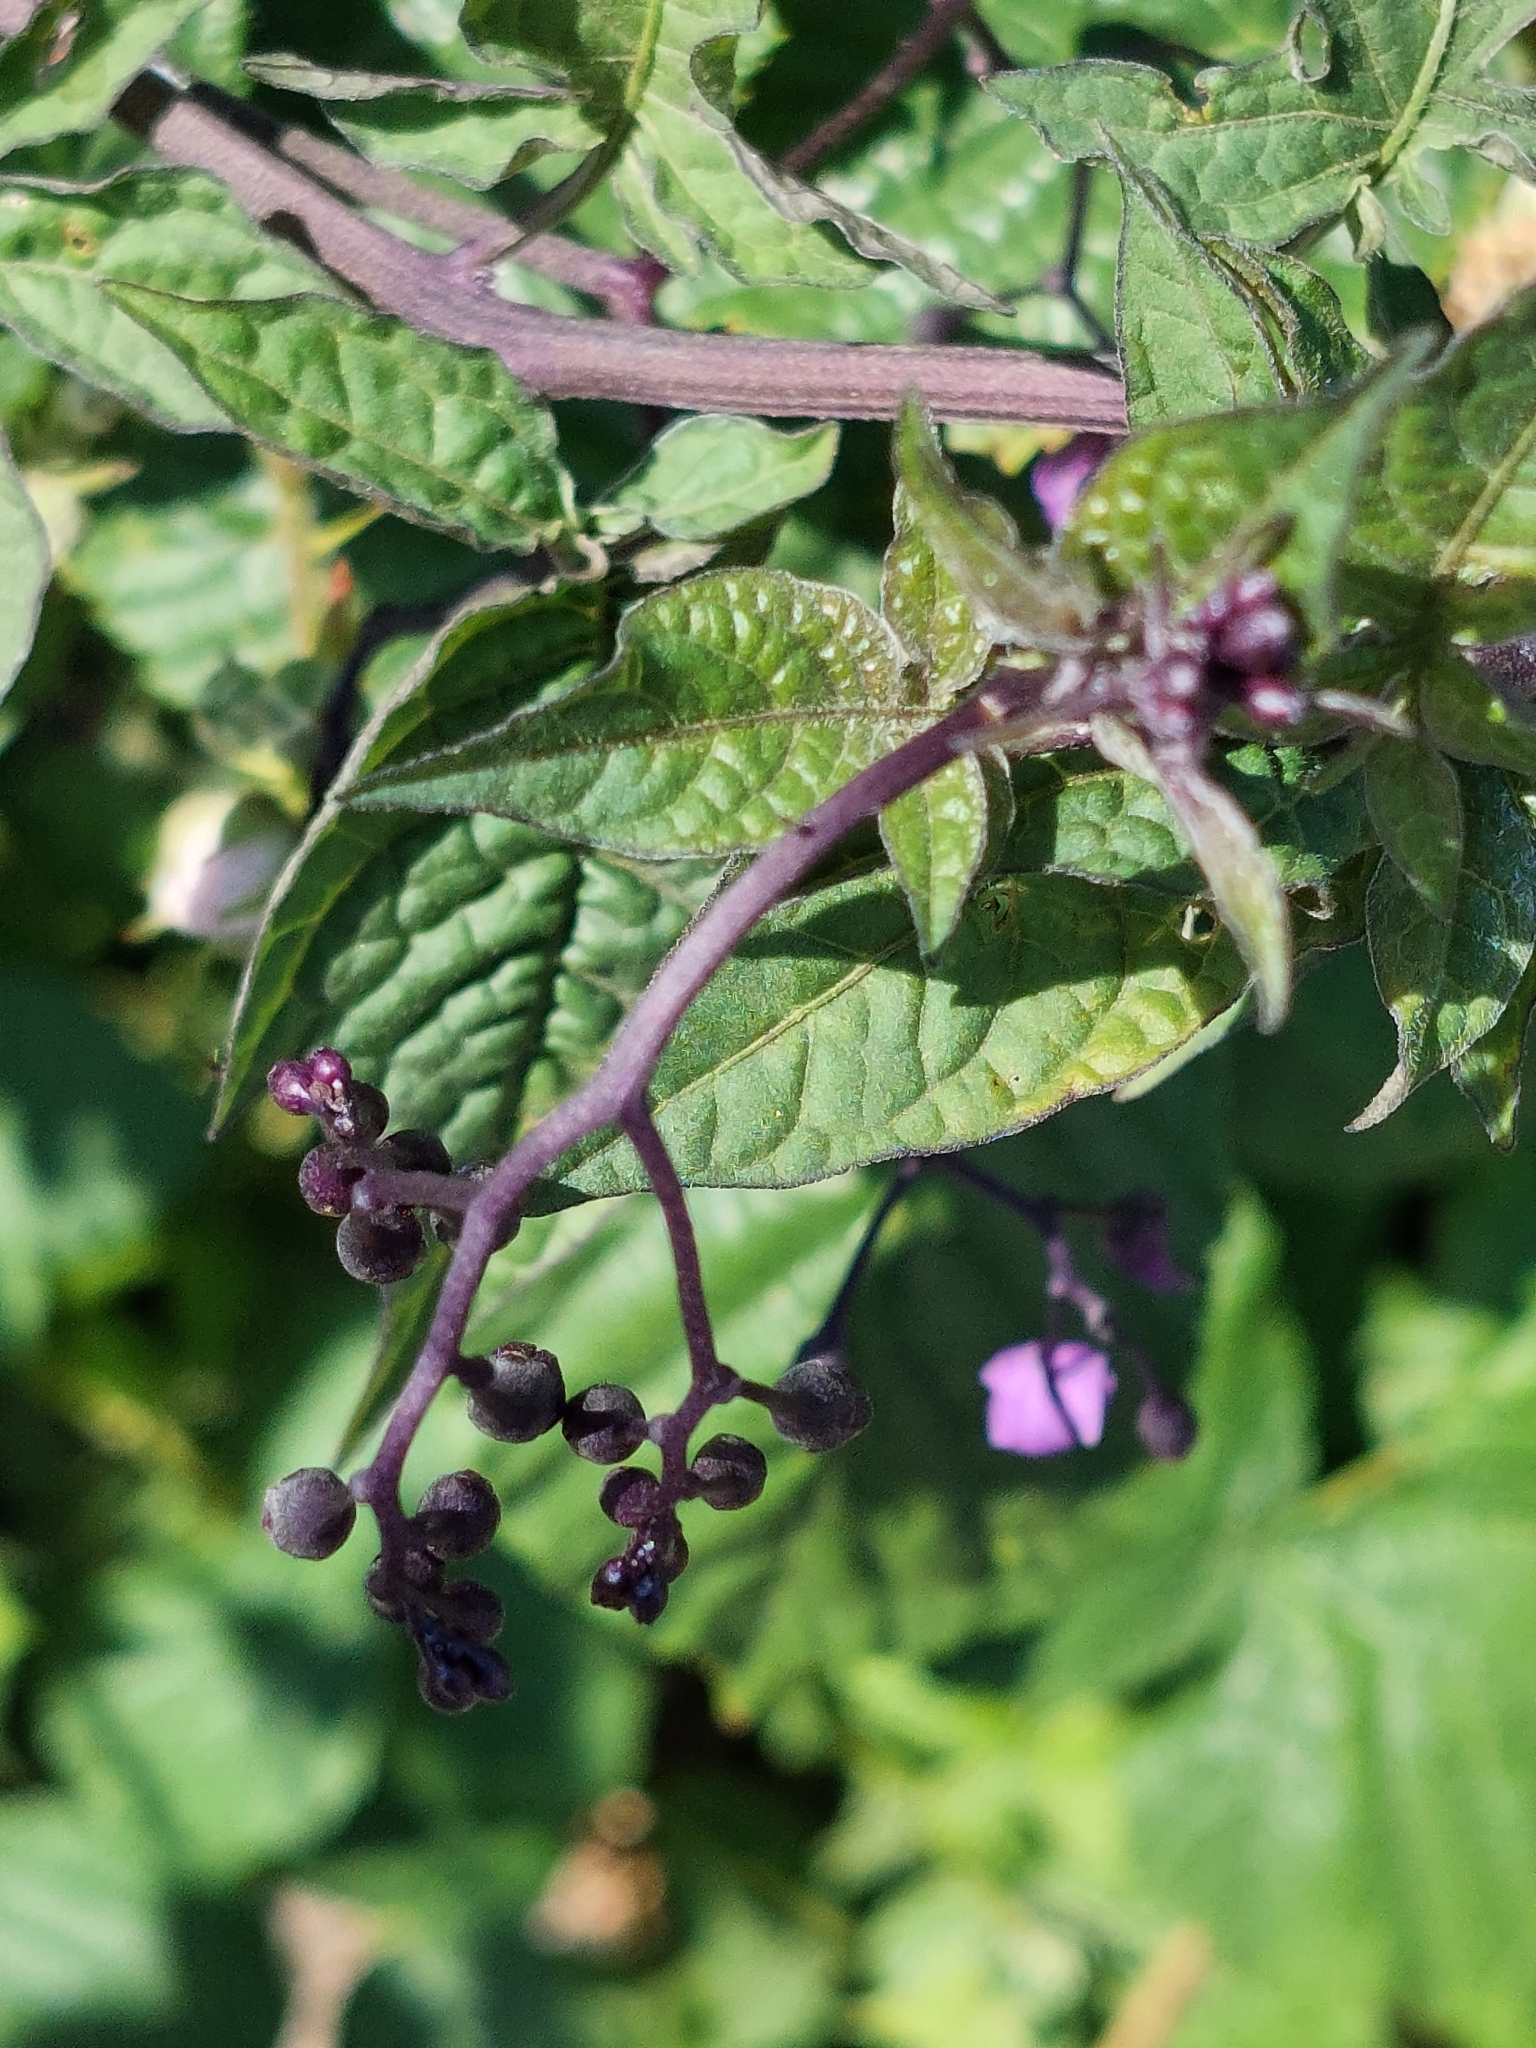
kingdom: Plantae
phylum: Tracheophyta
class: Magnoliopsida
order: Solanales
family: Solanaceae
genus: Solanum
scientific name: Solanum dulcamara
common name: Climbing nightshade
